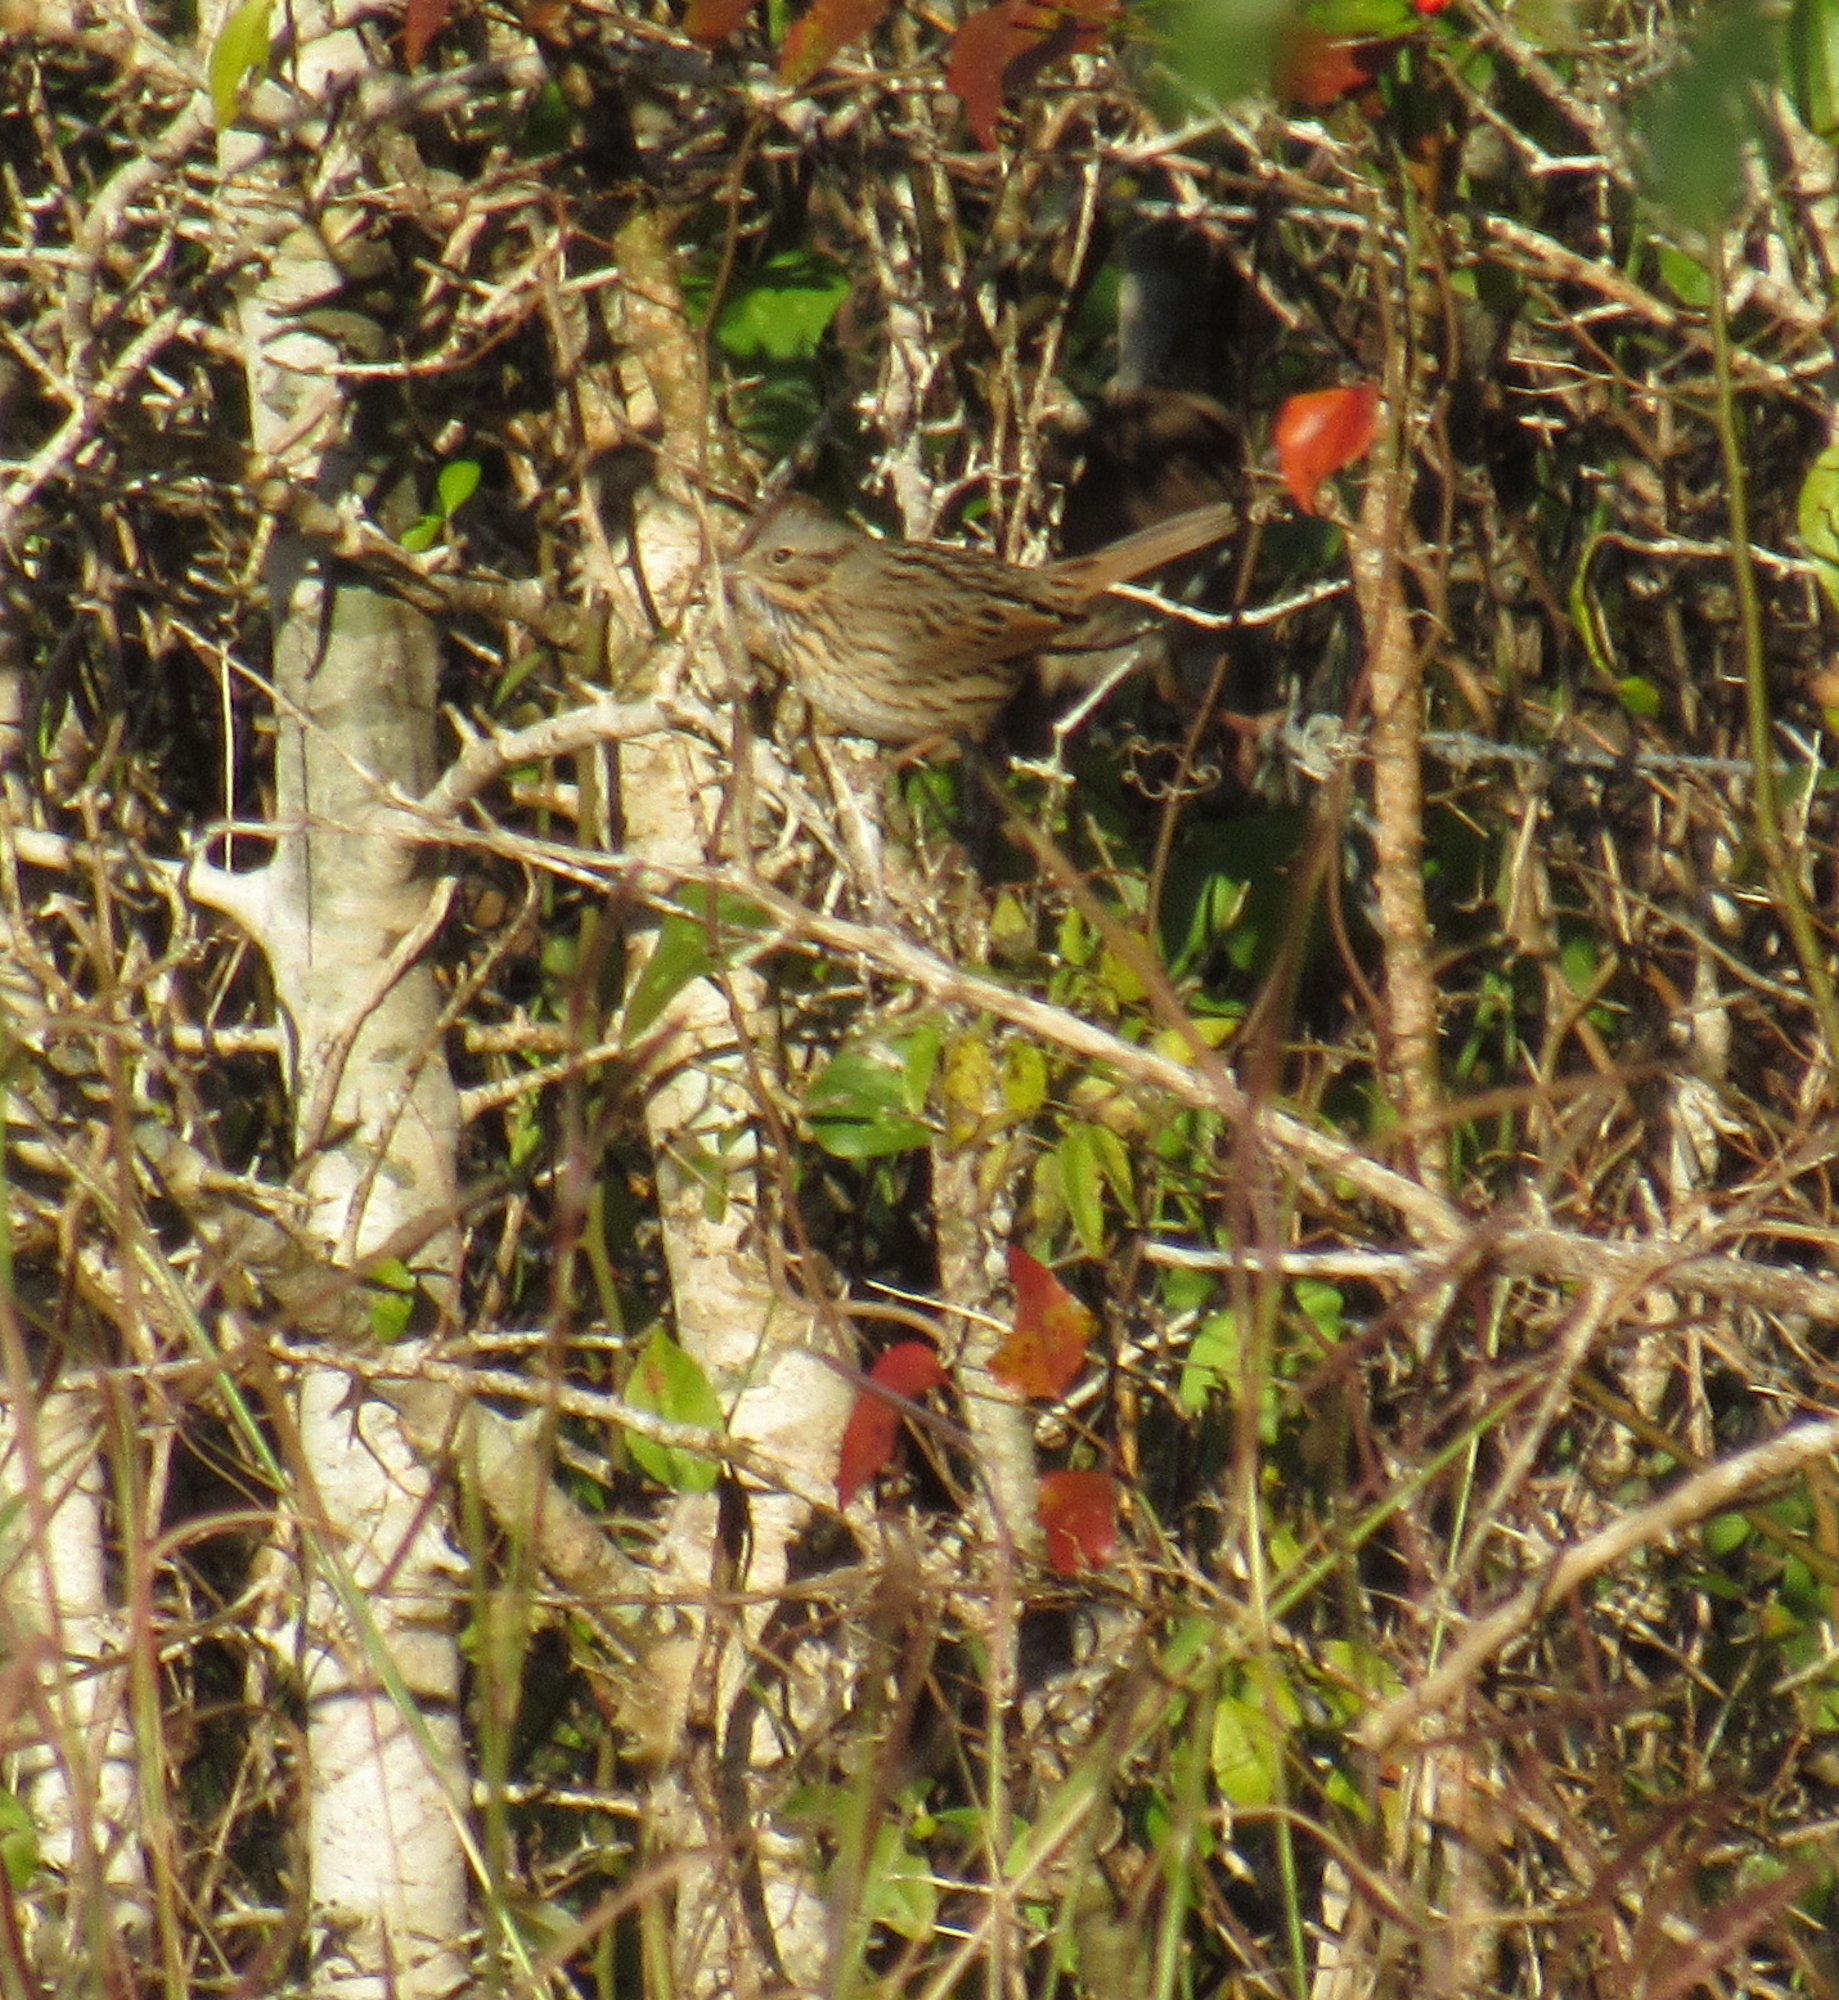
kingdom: Animalia
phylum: Chordata
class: Aves
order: Passeriformes
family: Passerellidae
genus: Melospiza
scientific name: Melospiza lincolnii
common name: Lincoln's sparrow
